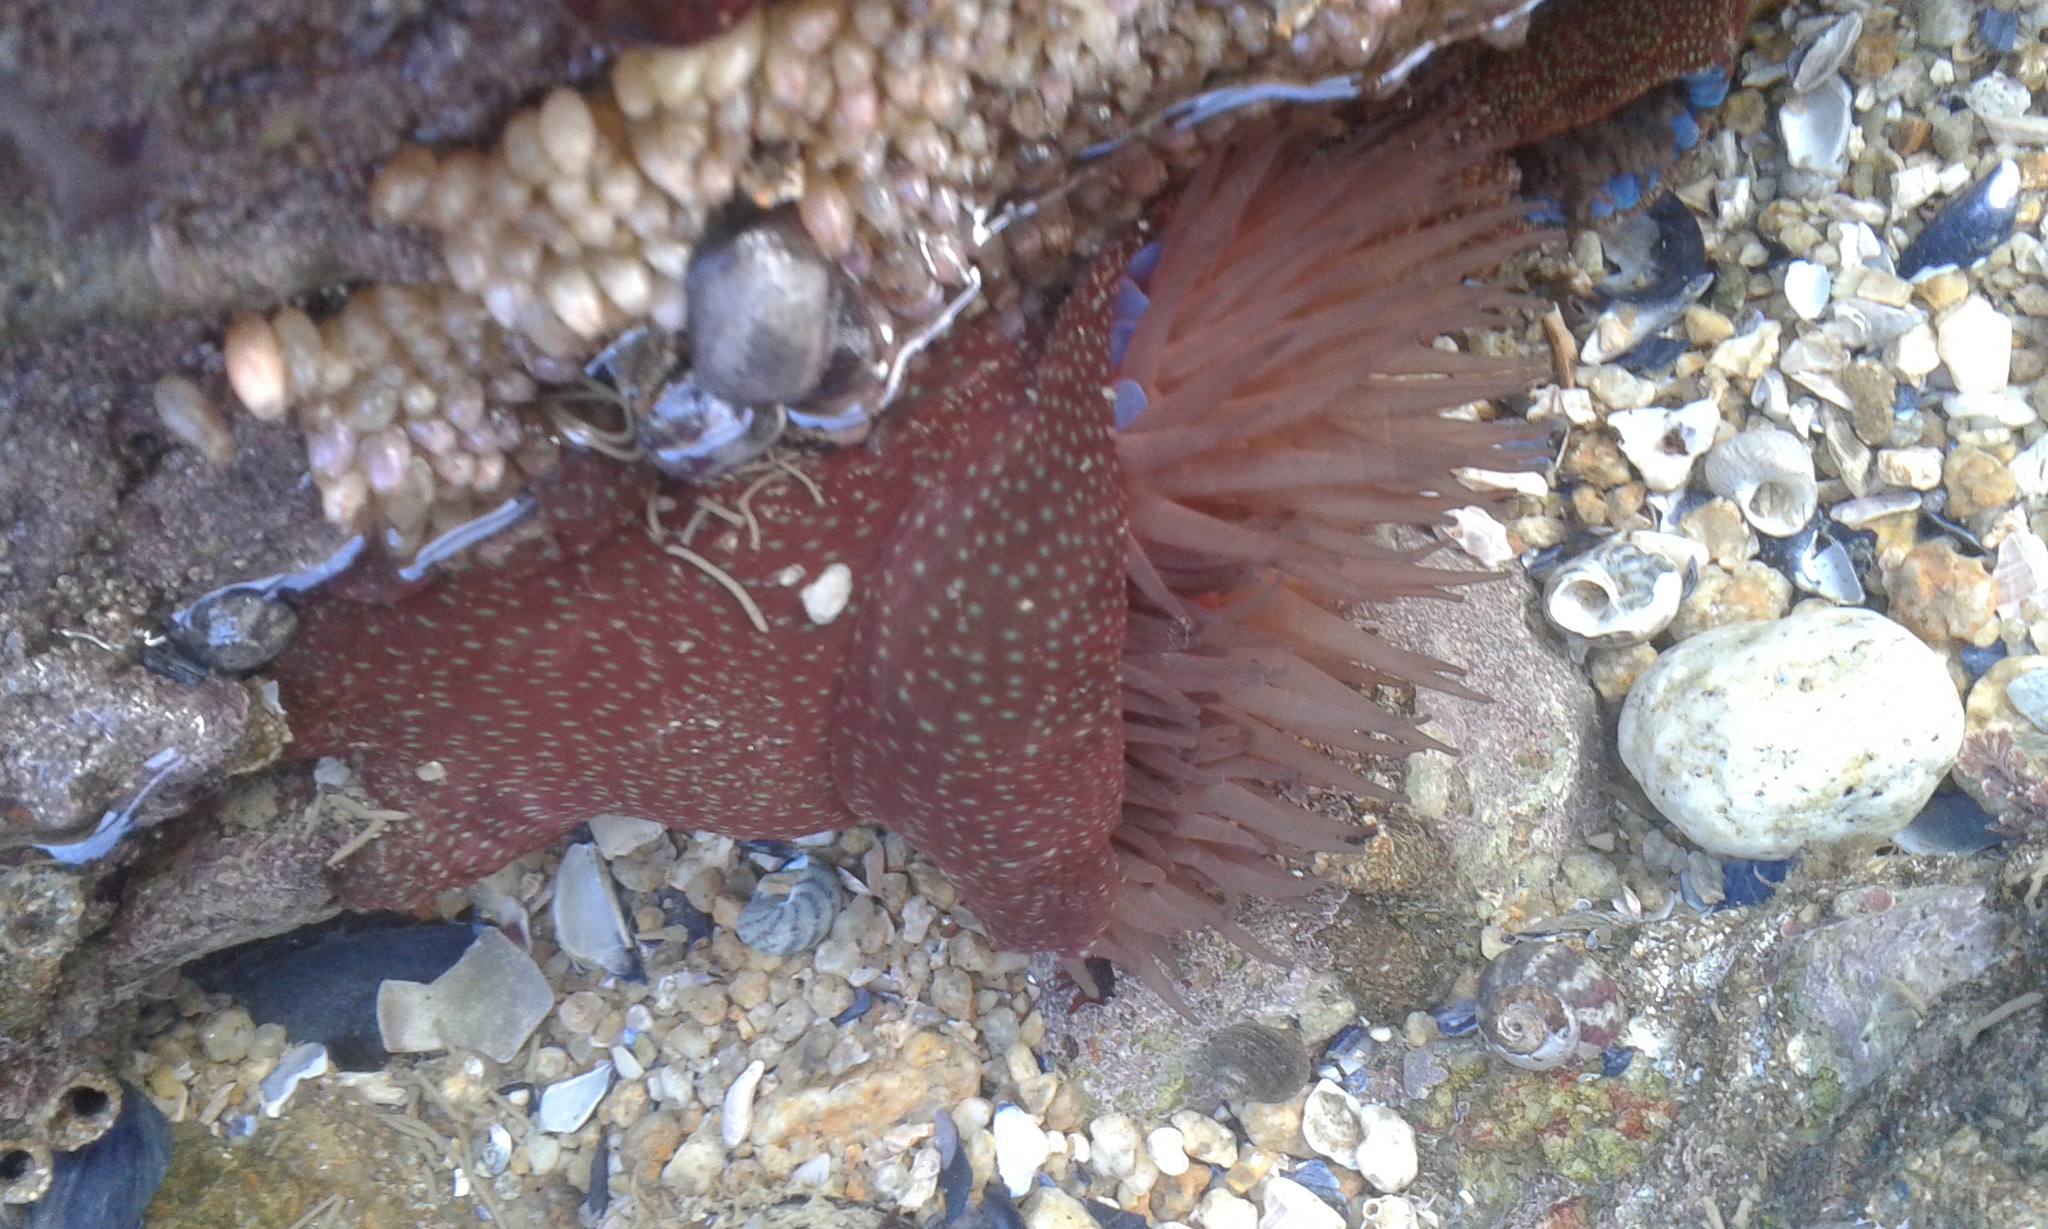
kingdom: Animalia
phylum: Cnidaria
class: Anthozoa
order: Actiniaria
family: Actiniidae
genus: Actinia
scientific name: Actinia fragacea
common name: Strawberry anemone
